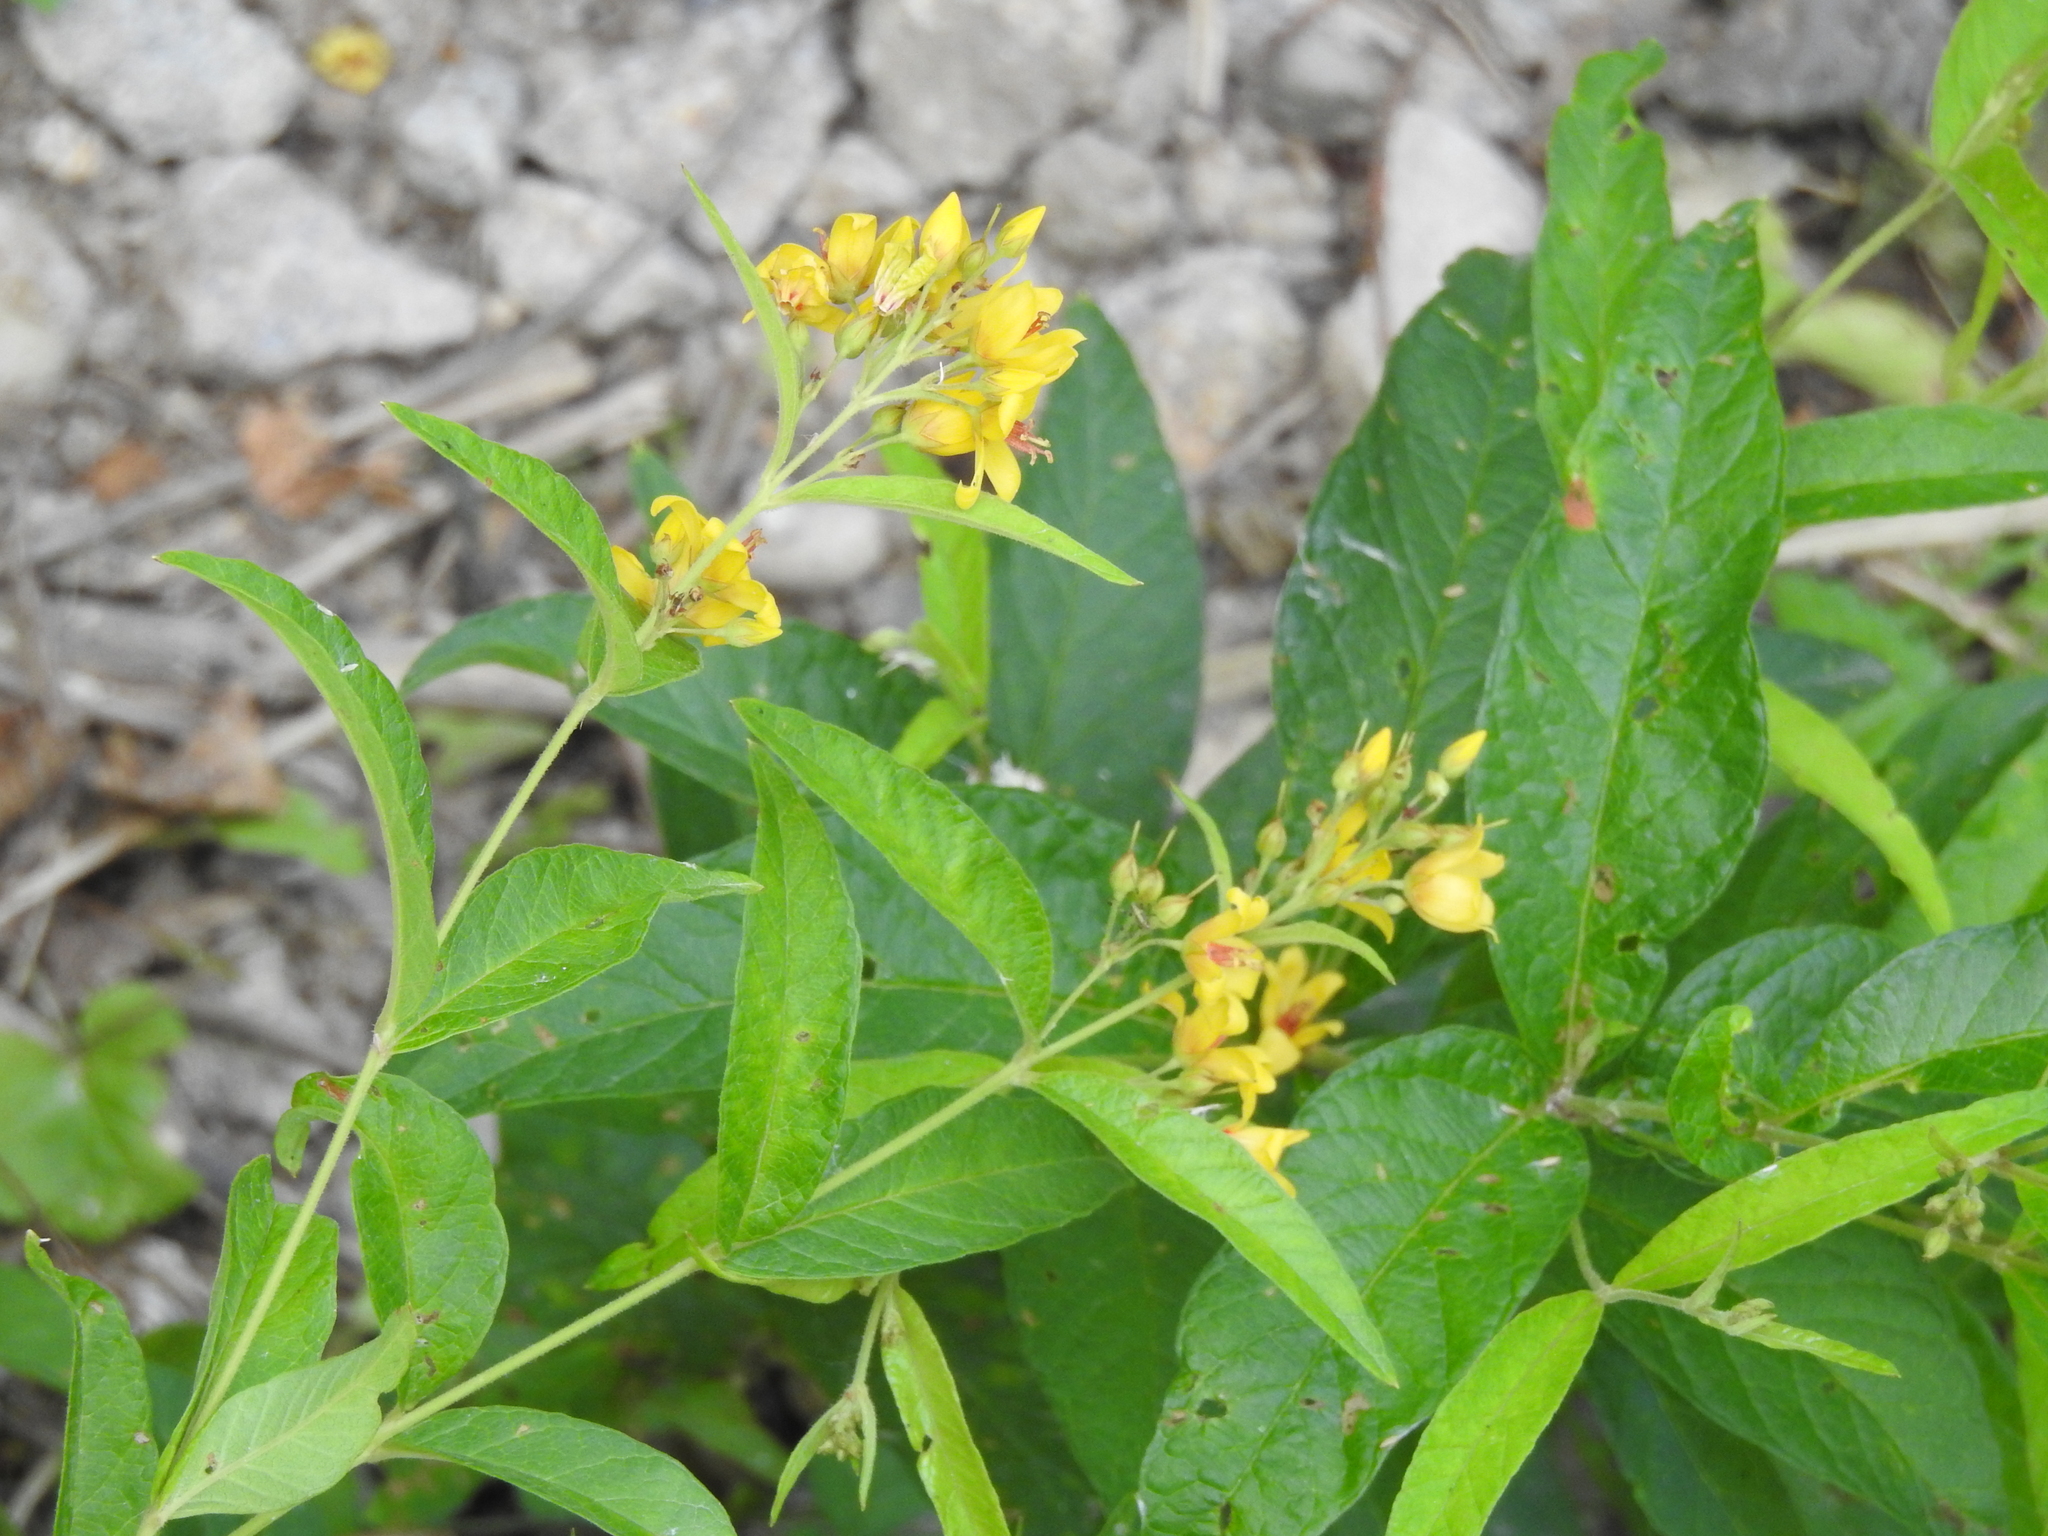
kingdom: Plantae
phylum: Tracheophyta
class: Magnoliopsida
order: Ericales
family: Primulaceae
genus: Lysimachia
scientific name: Lysimachia vulgaris
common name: Yellow loosestrife
